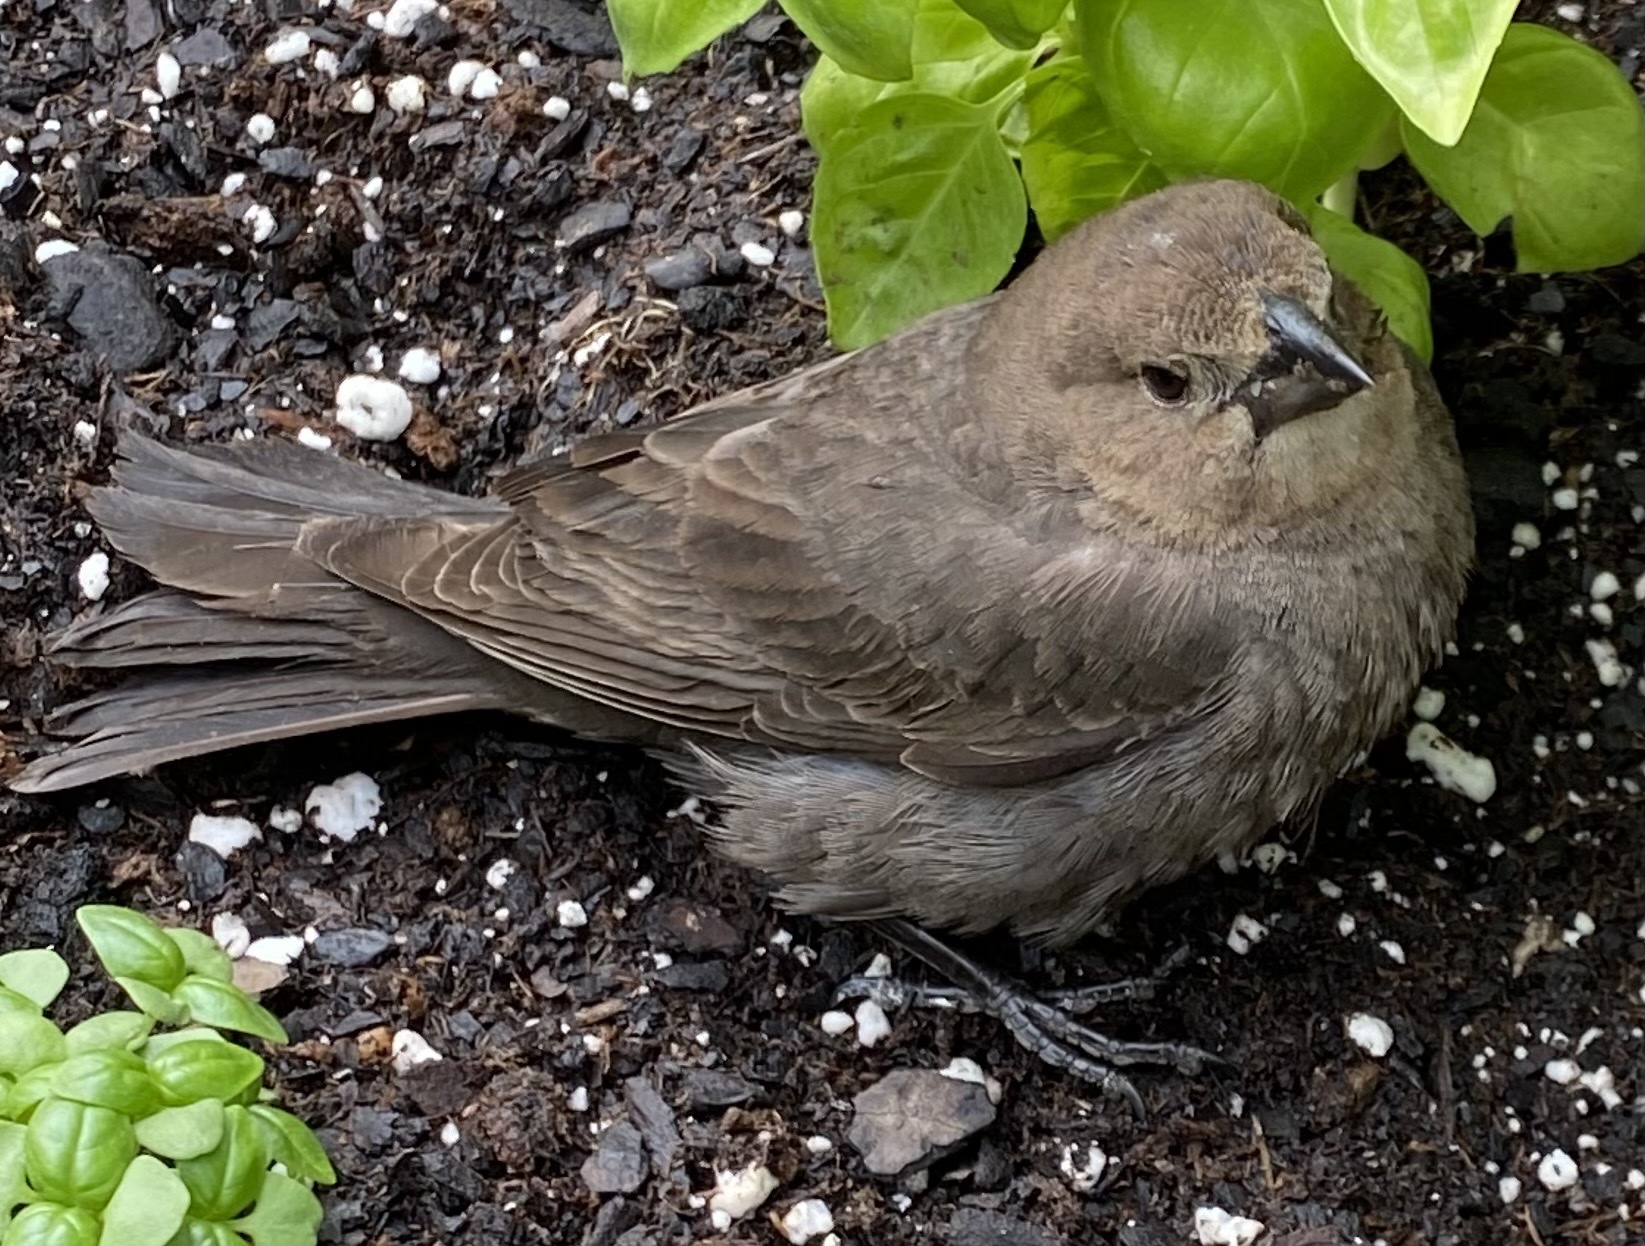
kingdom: Animalia
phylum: Chordata
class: Aves
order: Passeriformes
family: Icteridae
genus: Molothrus
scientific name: Molothrus ater
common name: Brown-headed cowbird
